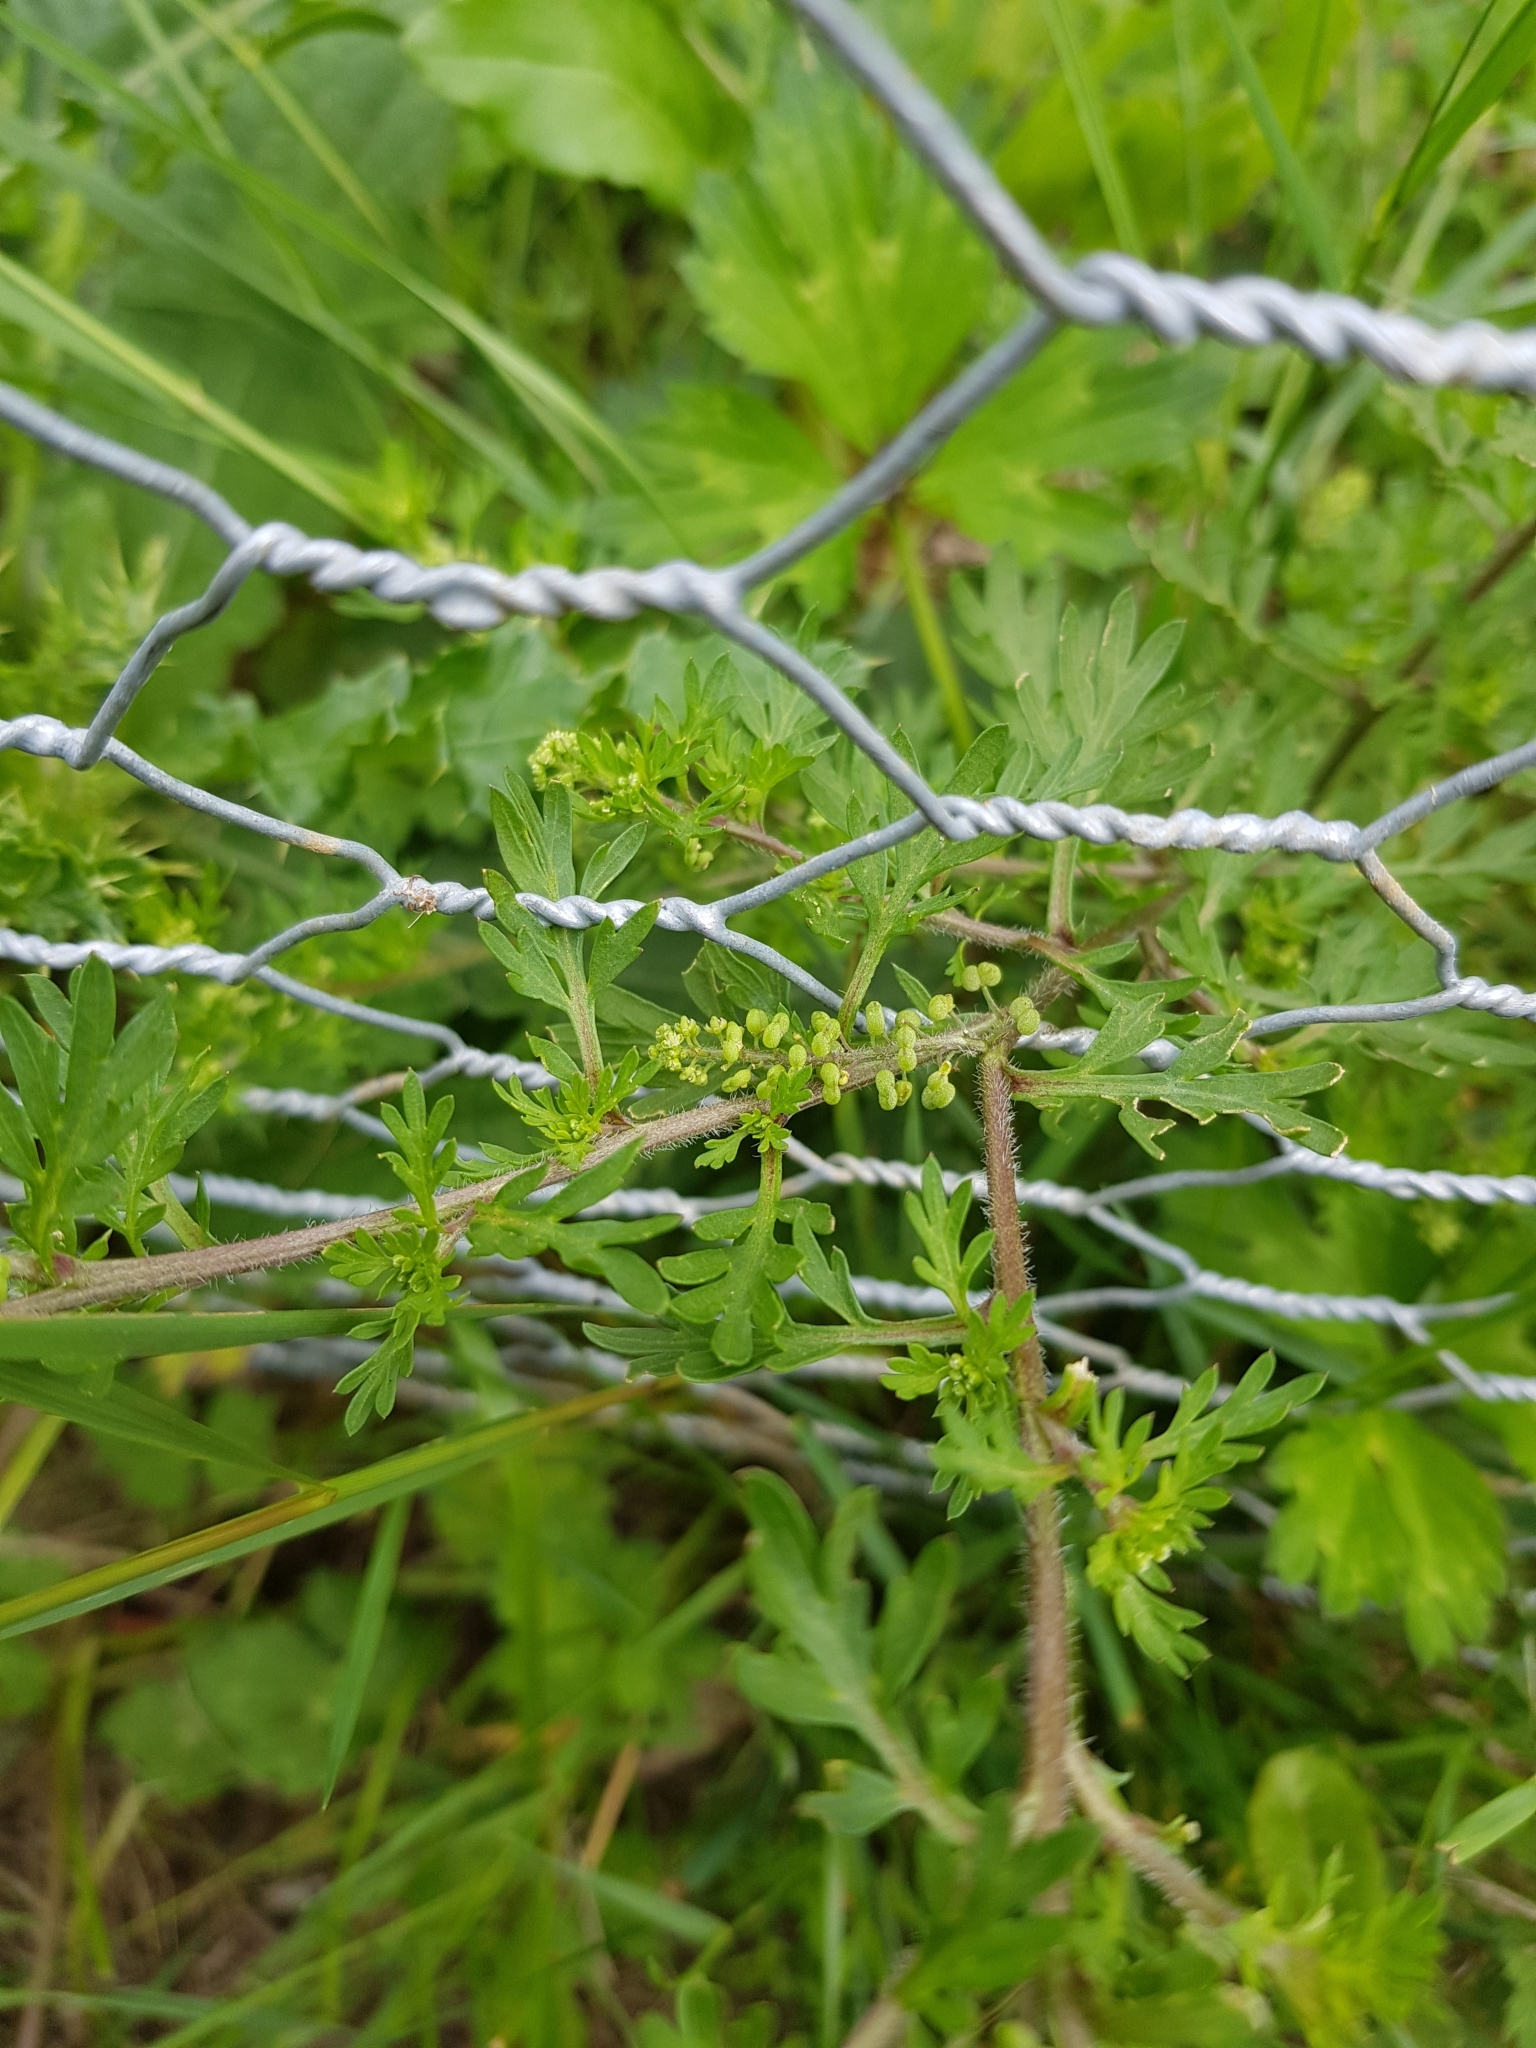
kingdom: Plantae
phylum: Tracheophyta
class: Magnoliopsida
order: Brassicales
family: Brassicaceae
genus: Lepidium
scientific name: Lepidium didymum
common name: Lesser swinecress
